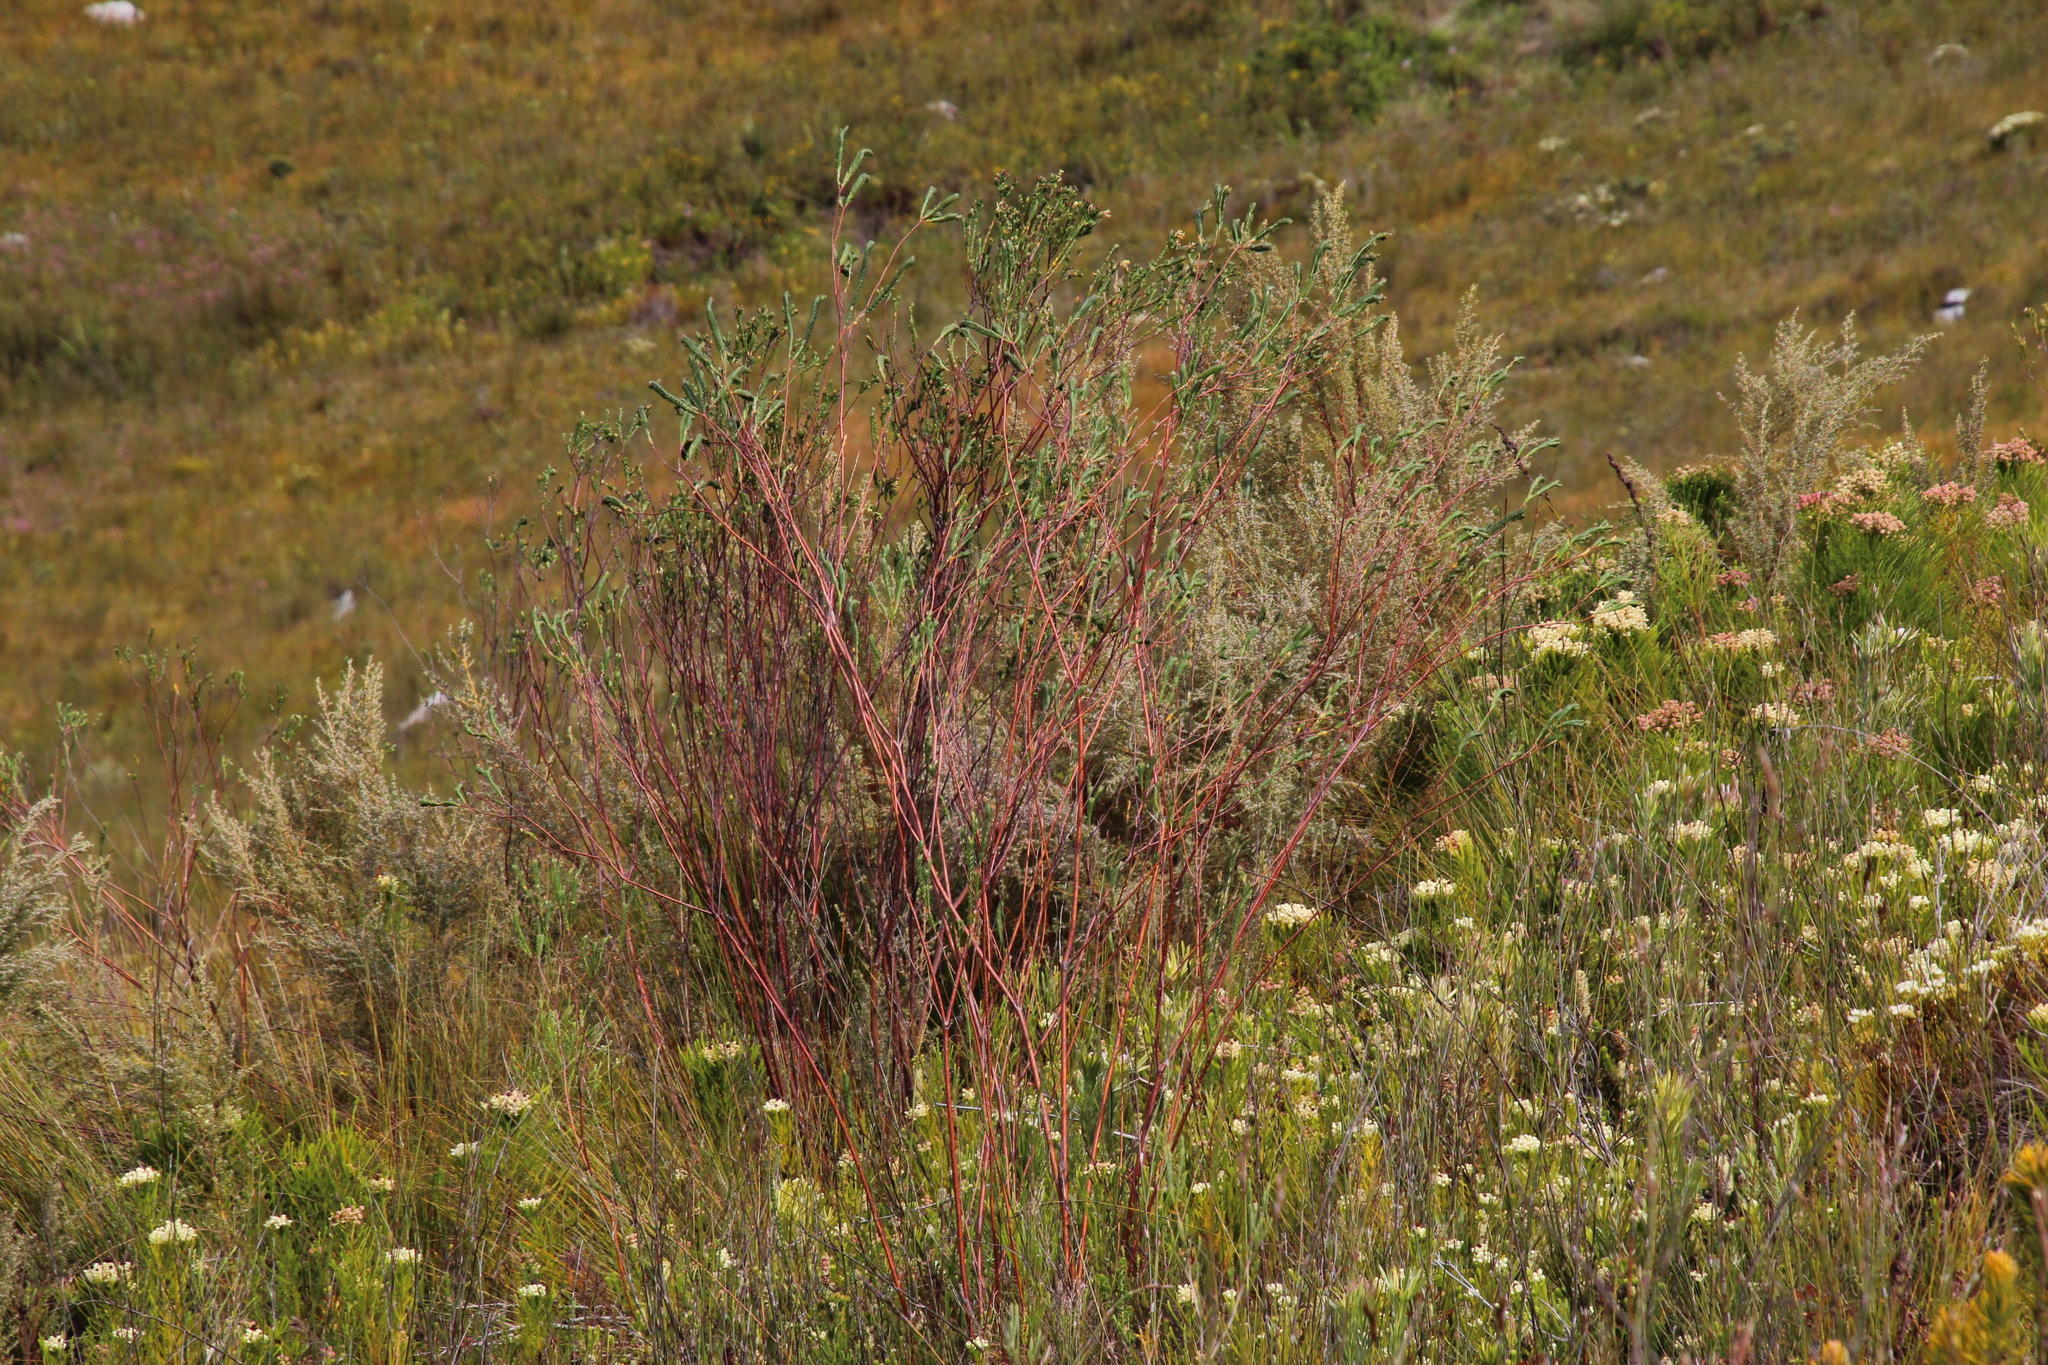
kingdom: Plantae
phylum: Tracheophyta
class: Magnoliopsida
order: Malvales
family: Thymelaeaceae
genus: Gnidia
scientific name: Gnidia oppositifolia
